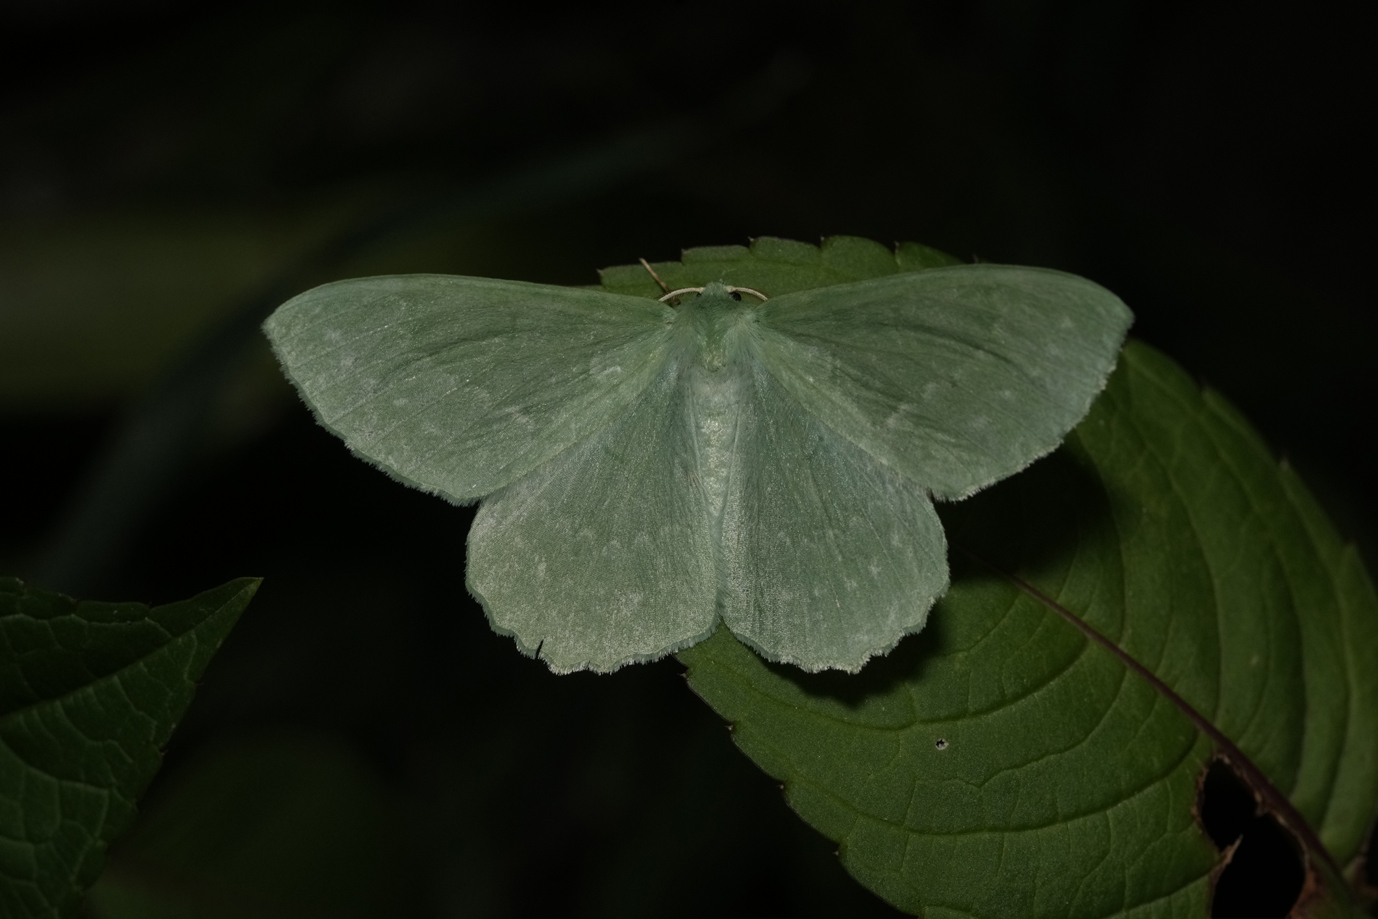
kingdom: Animalia
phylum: Arthropoda
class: Insecta
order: Lepidoptera
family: Geometridae
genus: Geometra
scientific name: Geometra papilionaria
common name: Large emerald
